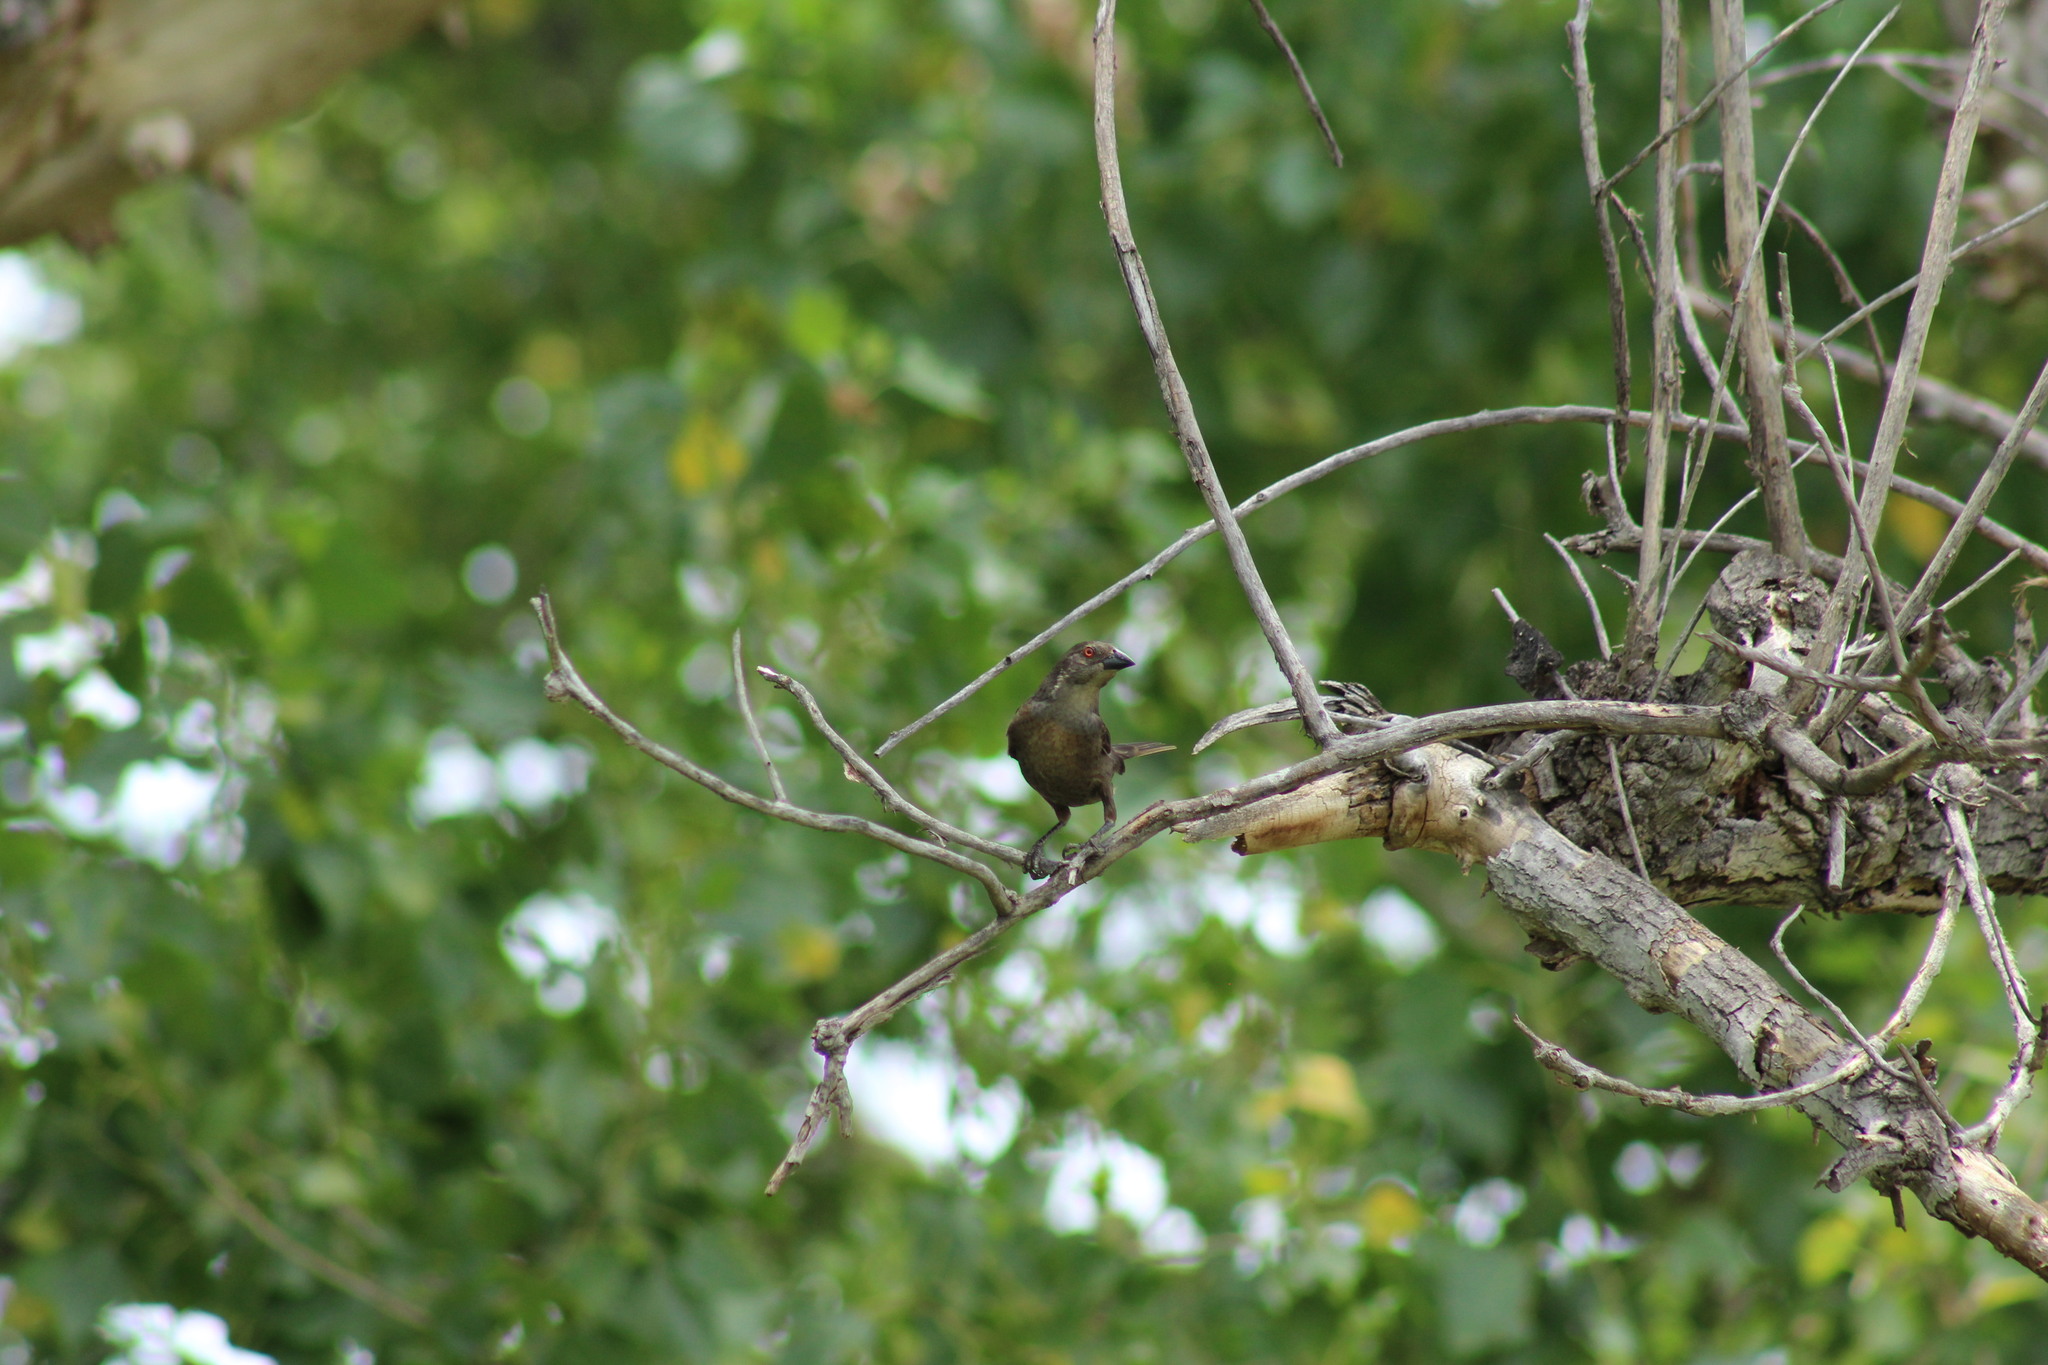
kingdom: Animalia
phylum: Chordata
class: Aves
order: Passeriformes
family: Icteridae
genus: Molothrus
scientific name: Molothrus aeneus
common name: Bronzed cowbird
